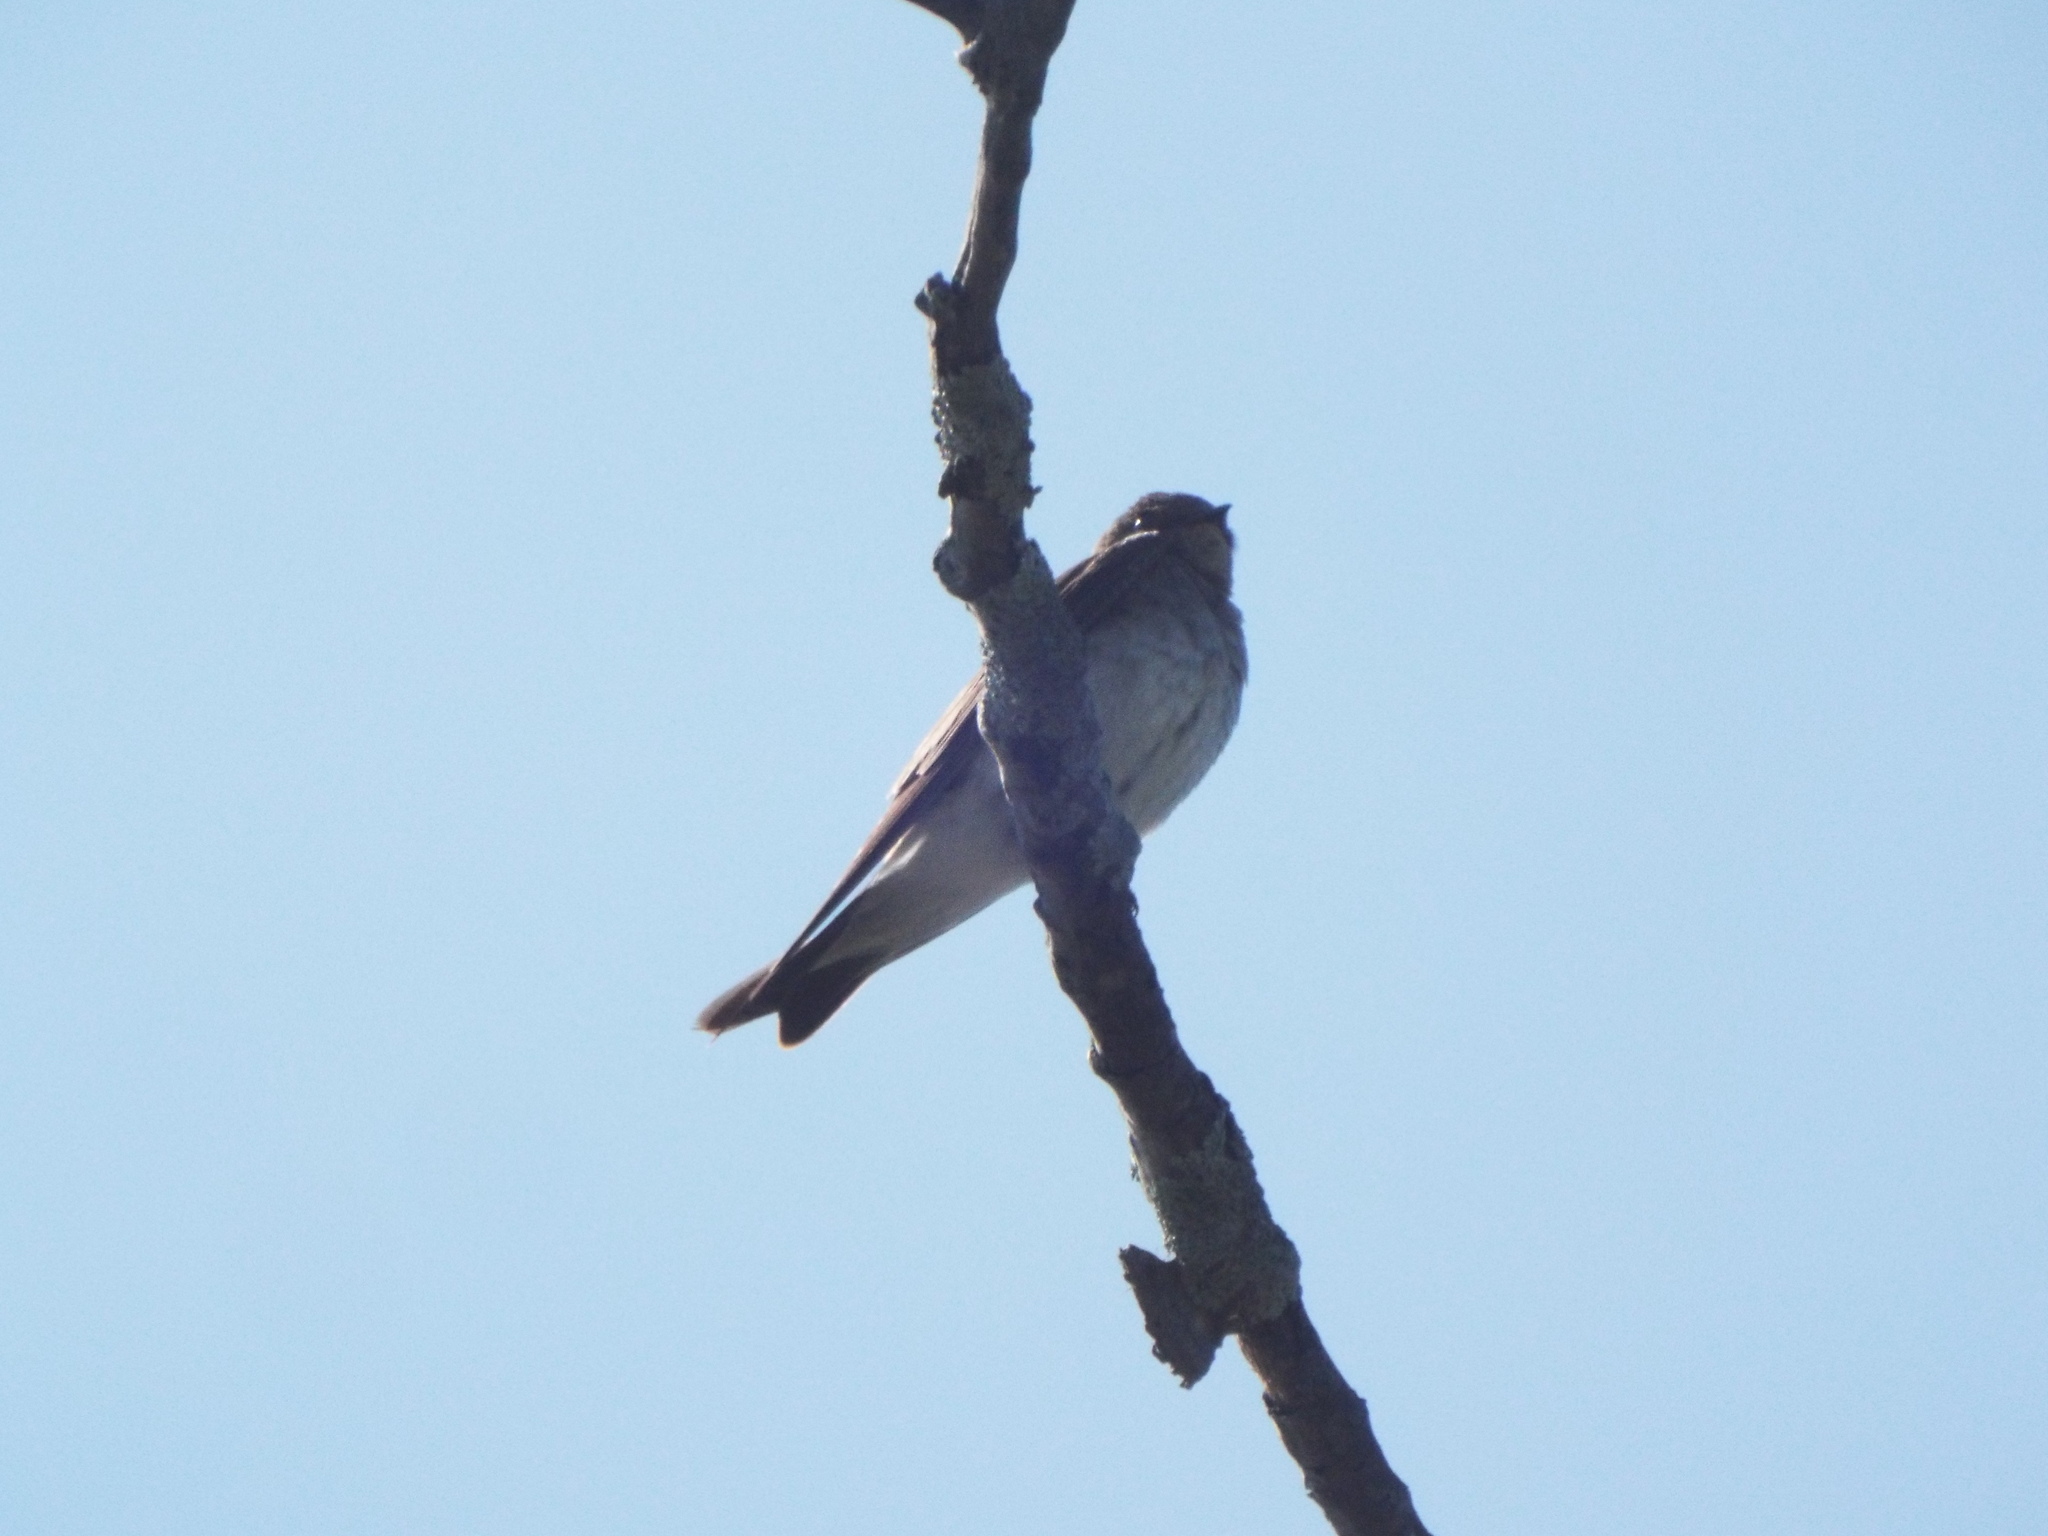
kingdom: Animalia
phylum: Chordata
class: Aves
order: Passeriformes
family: Hirundinidae
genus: Stelgidopteryx
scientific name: Stelgidopteryx serripennis
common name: Northern rough-winged swallow
